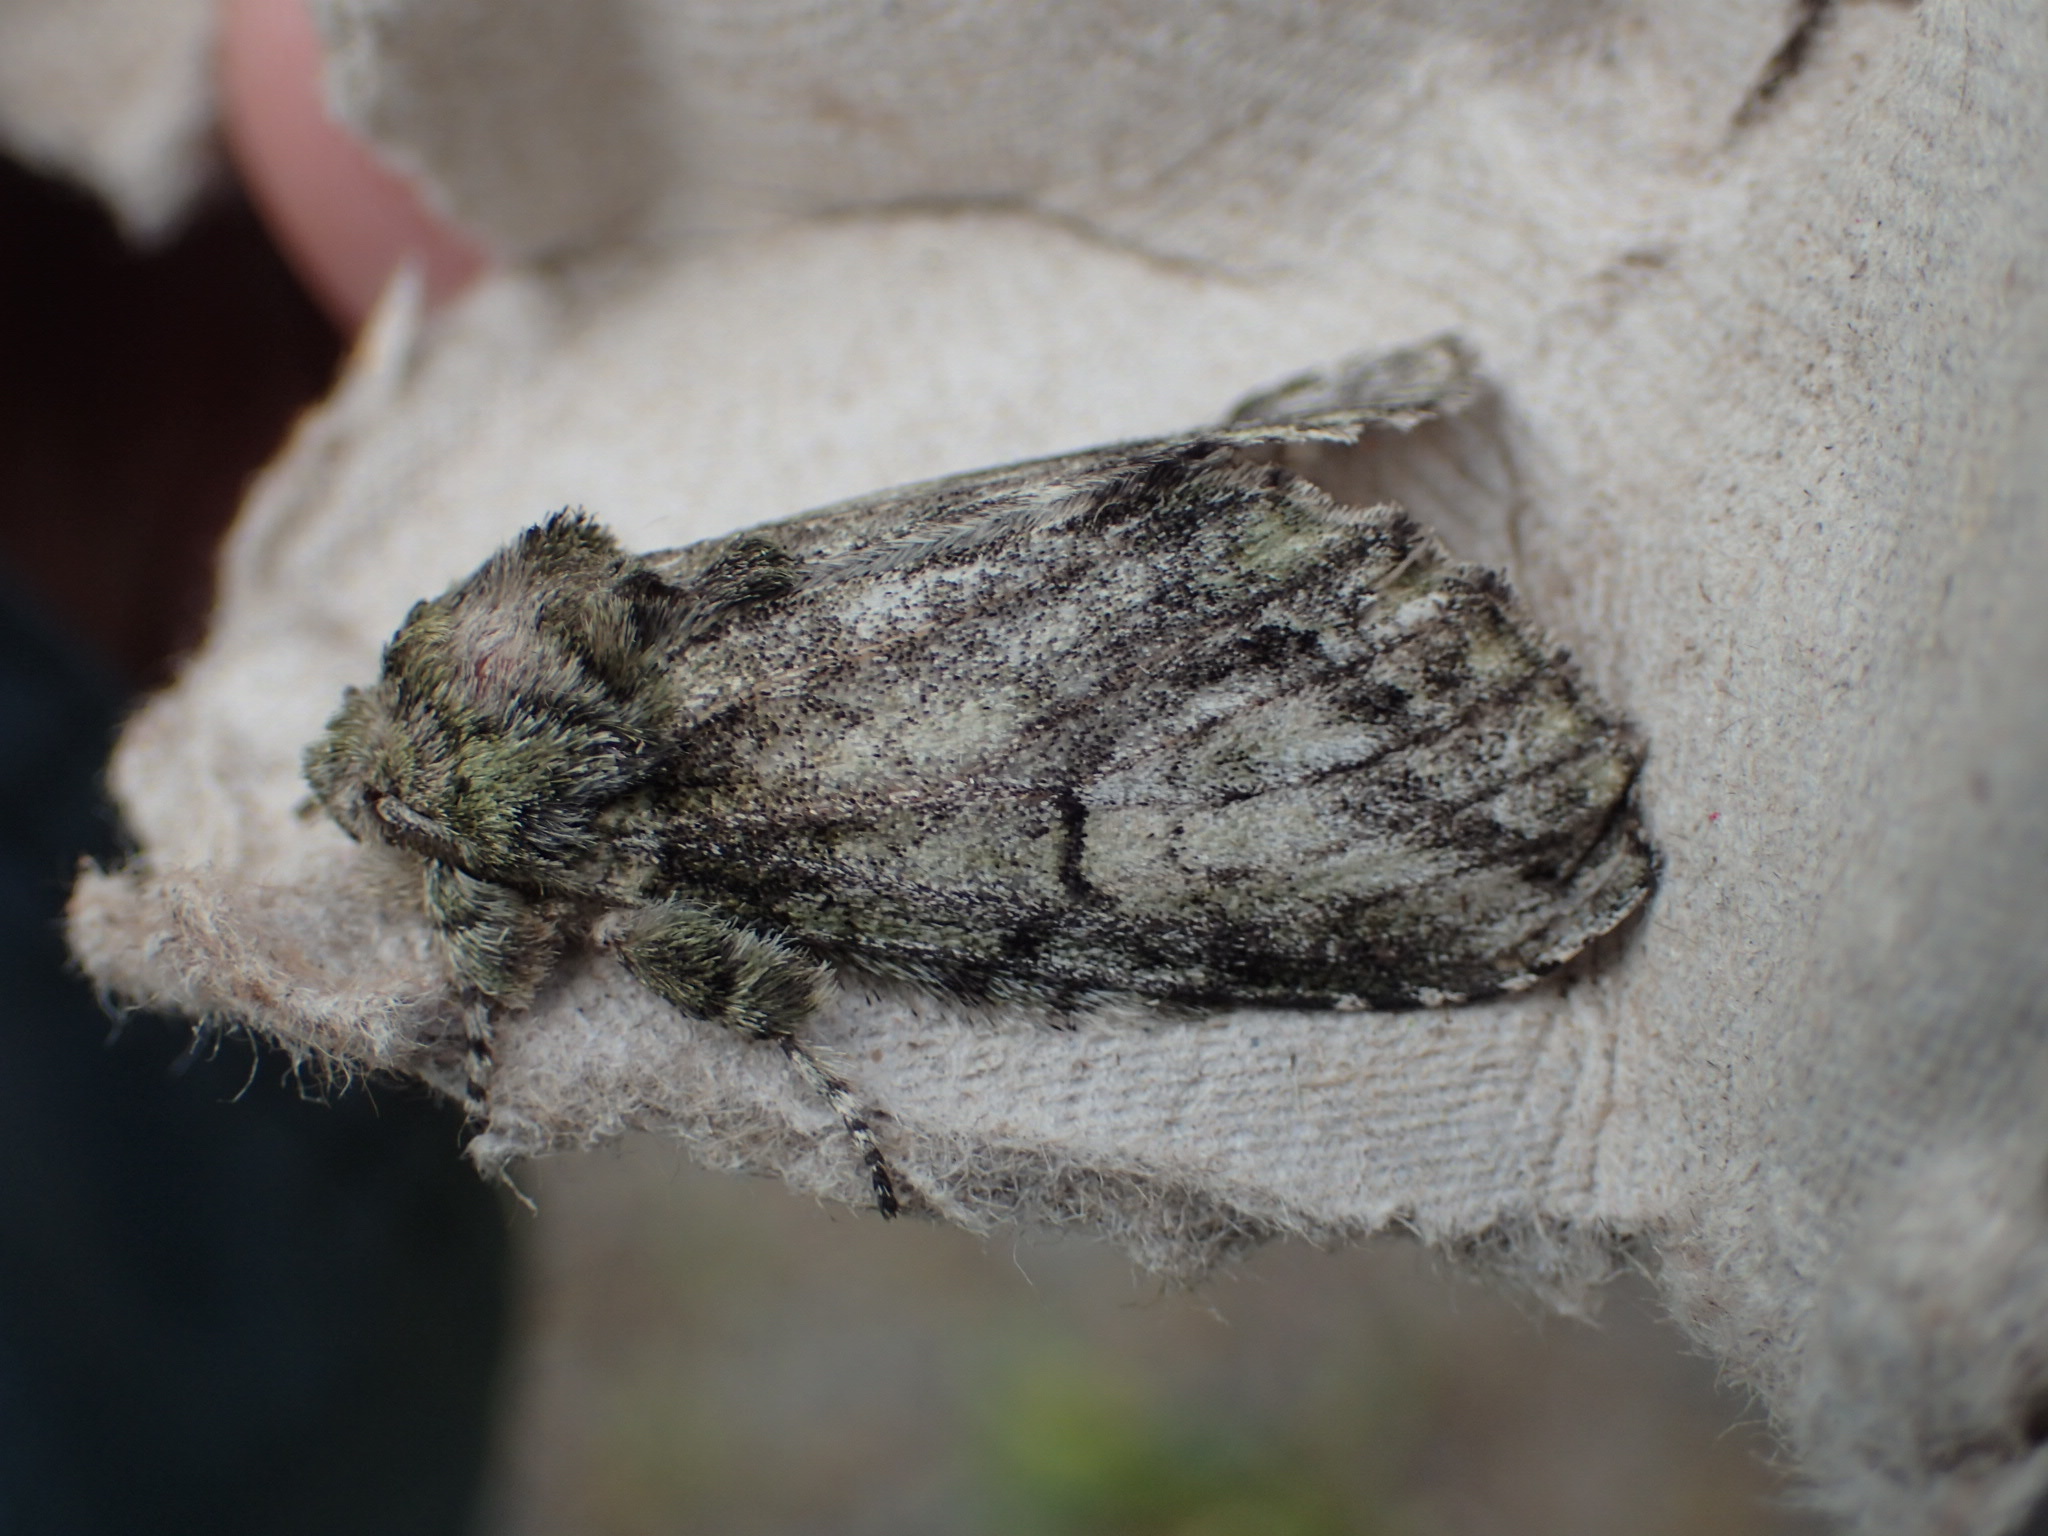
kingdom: Animalia
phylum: Arthropoda
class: Insecta
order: Lepidoptera
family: Notodontidae
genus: Heterocampa
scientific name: Heterocampa
